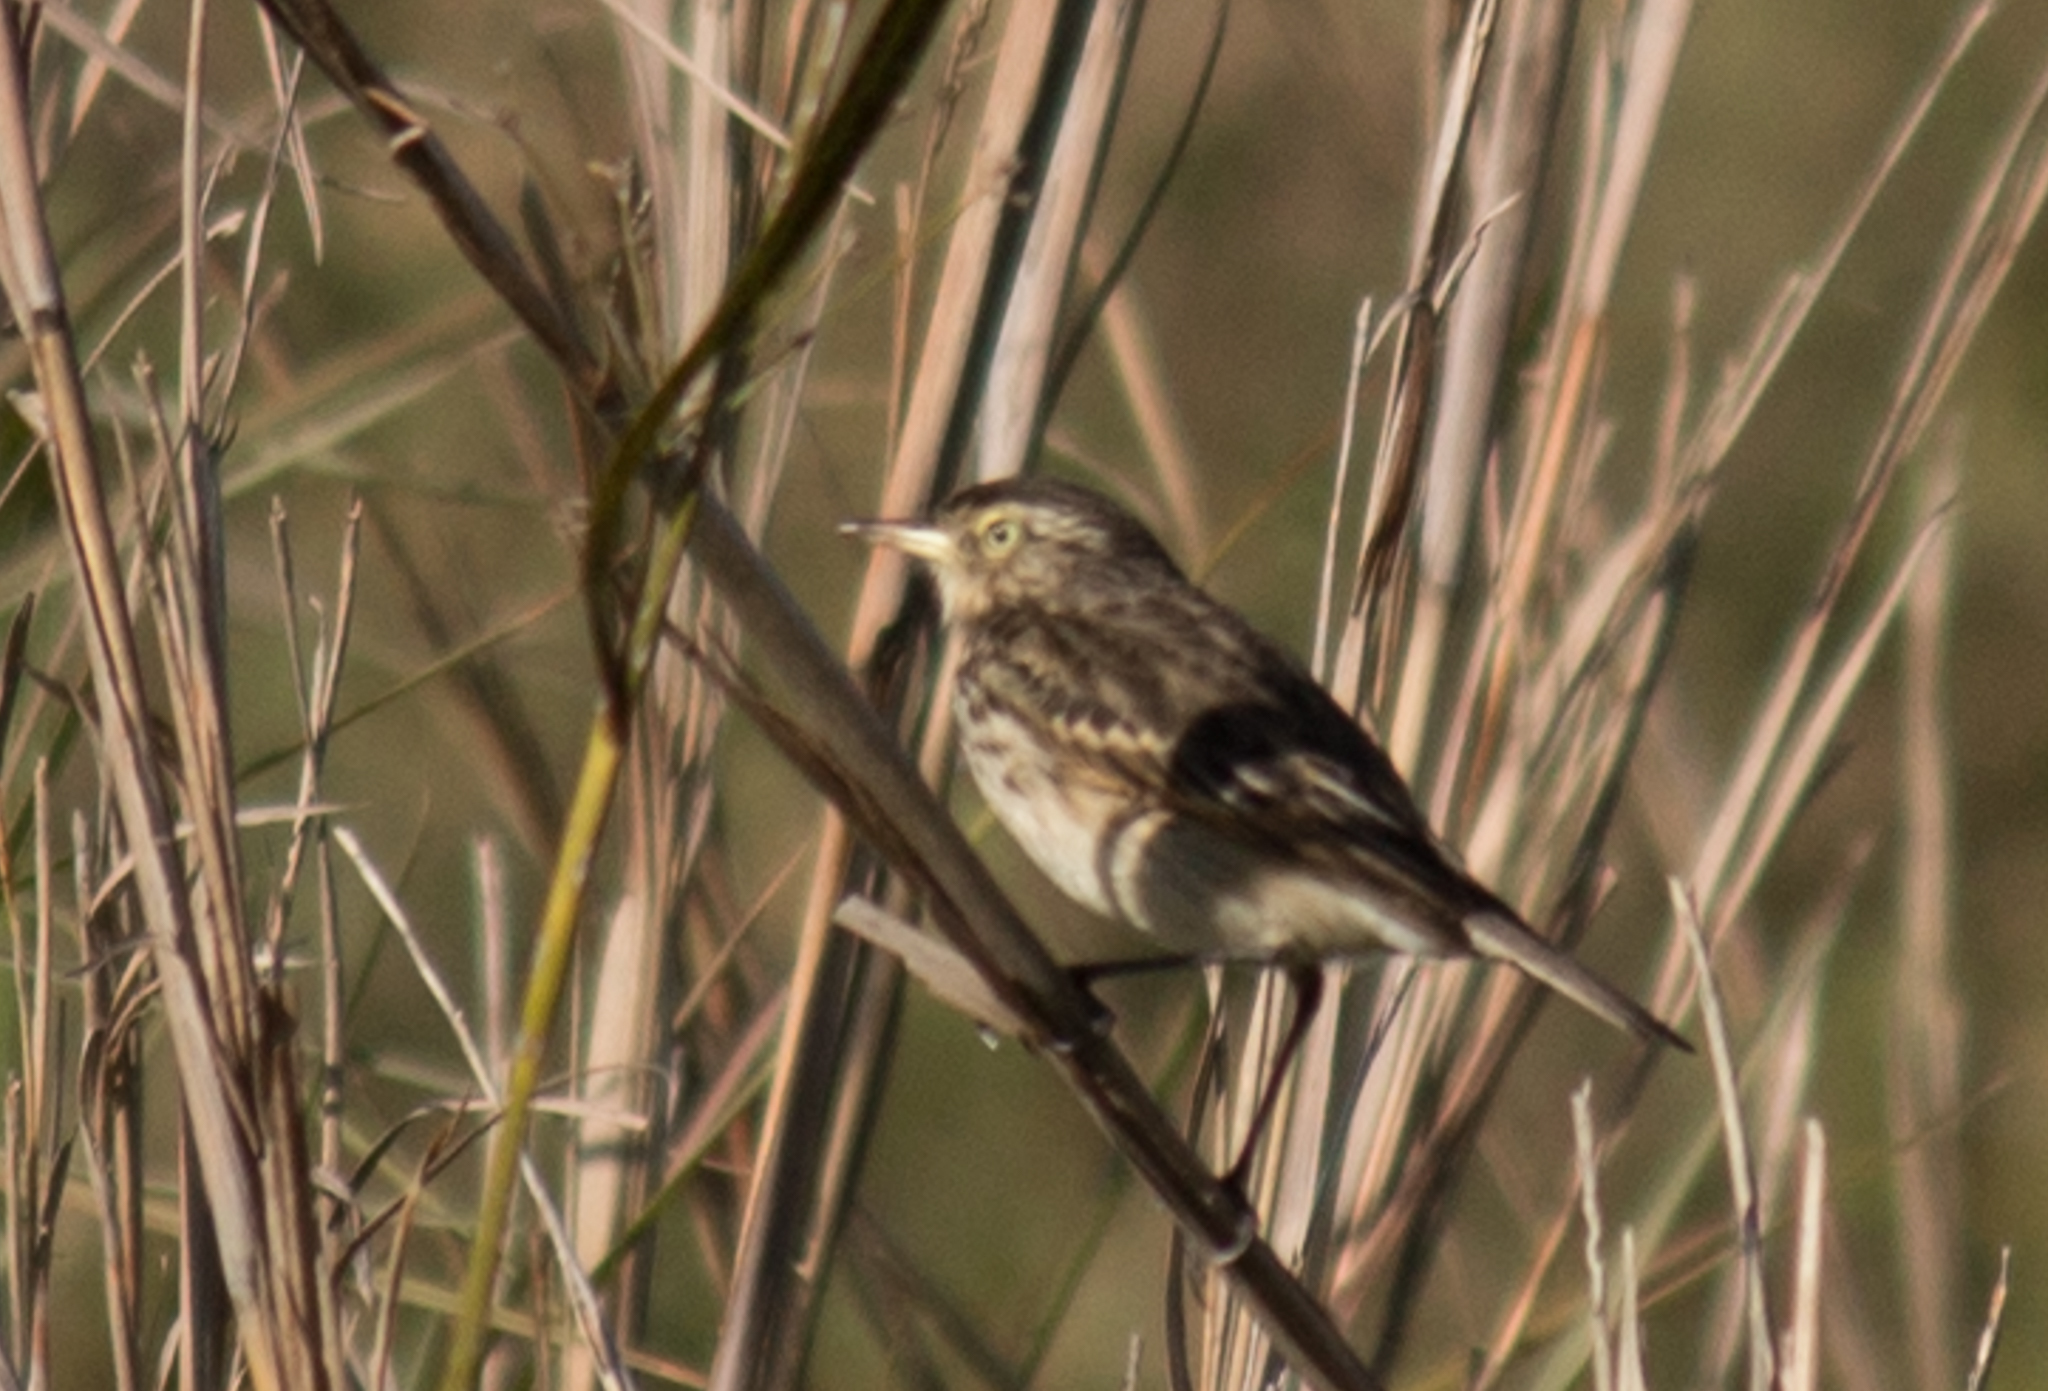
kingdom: Animalia
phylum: Chordata
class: Aves
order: Passeriformes
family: Tyrannidae
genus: Hymenops
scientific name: Hymenops perspicillatus
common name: Spectacled tyrant
